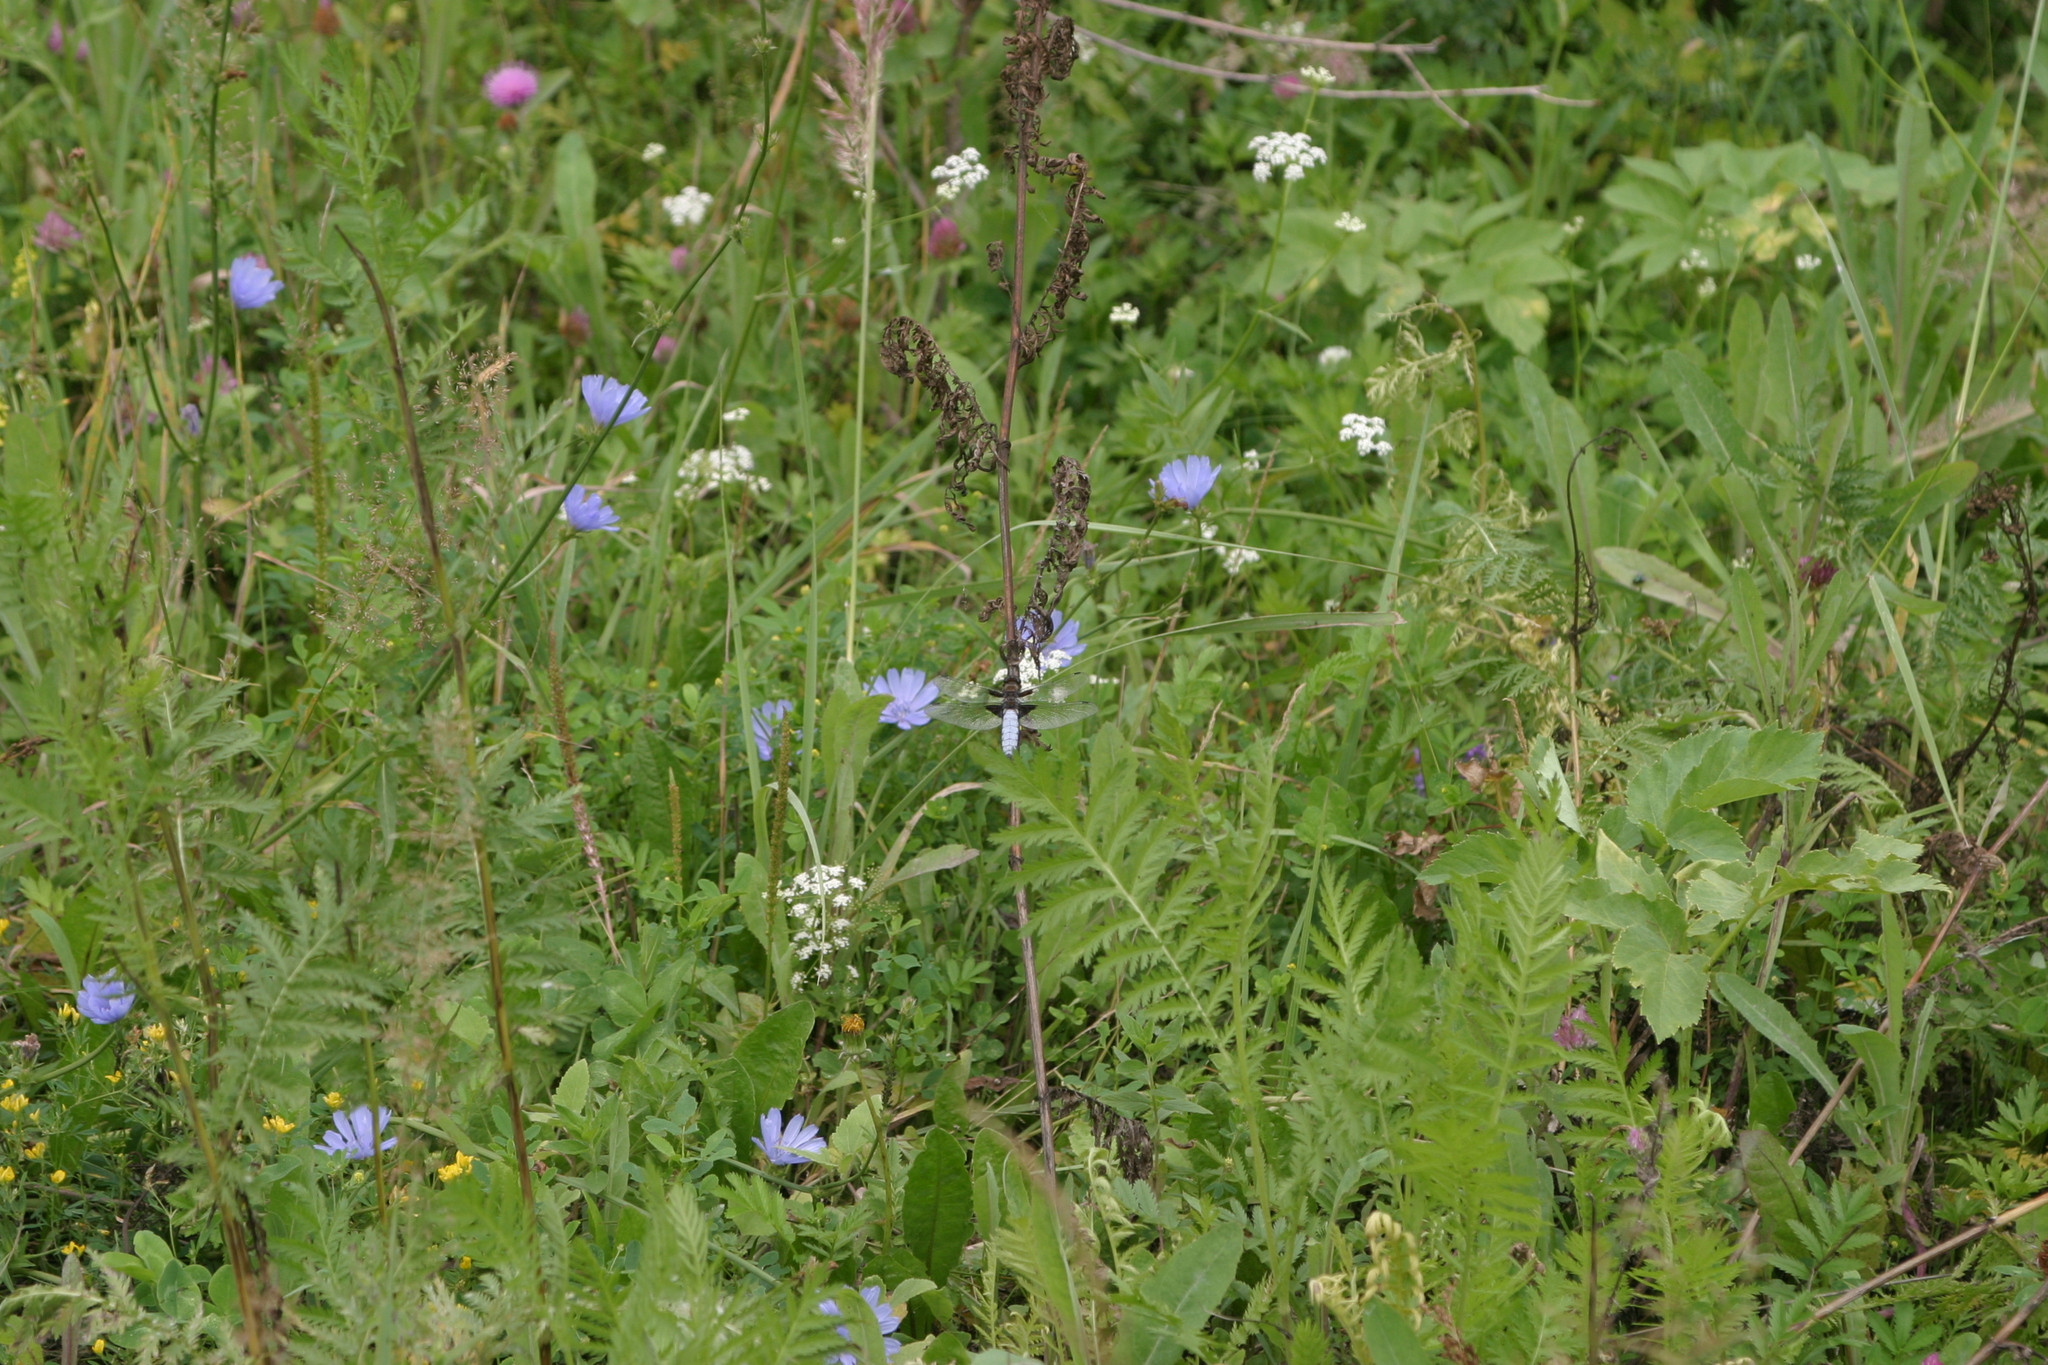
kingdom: Plantae
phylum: Tracheophyta
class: Magnoliopsida
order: Asterales
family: Asteraceae
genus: Cichorium
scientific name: Cichorium intybus
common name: Chicory
